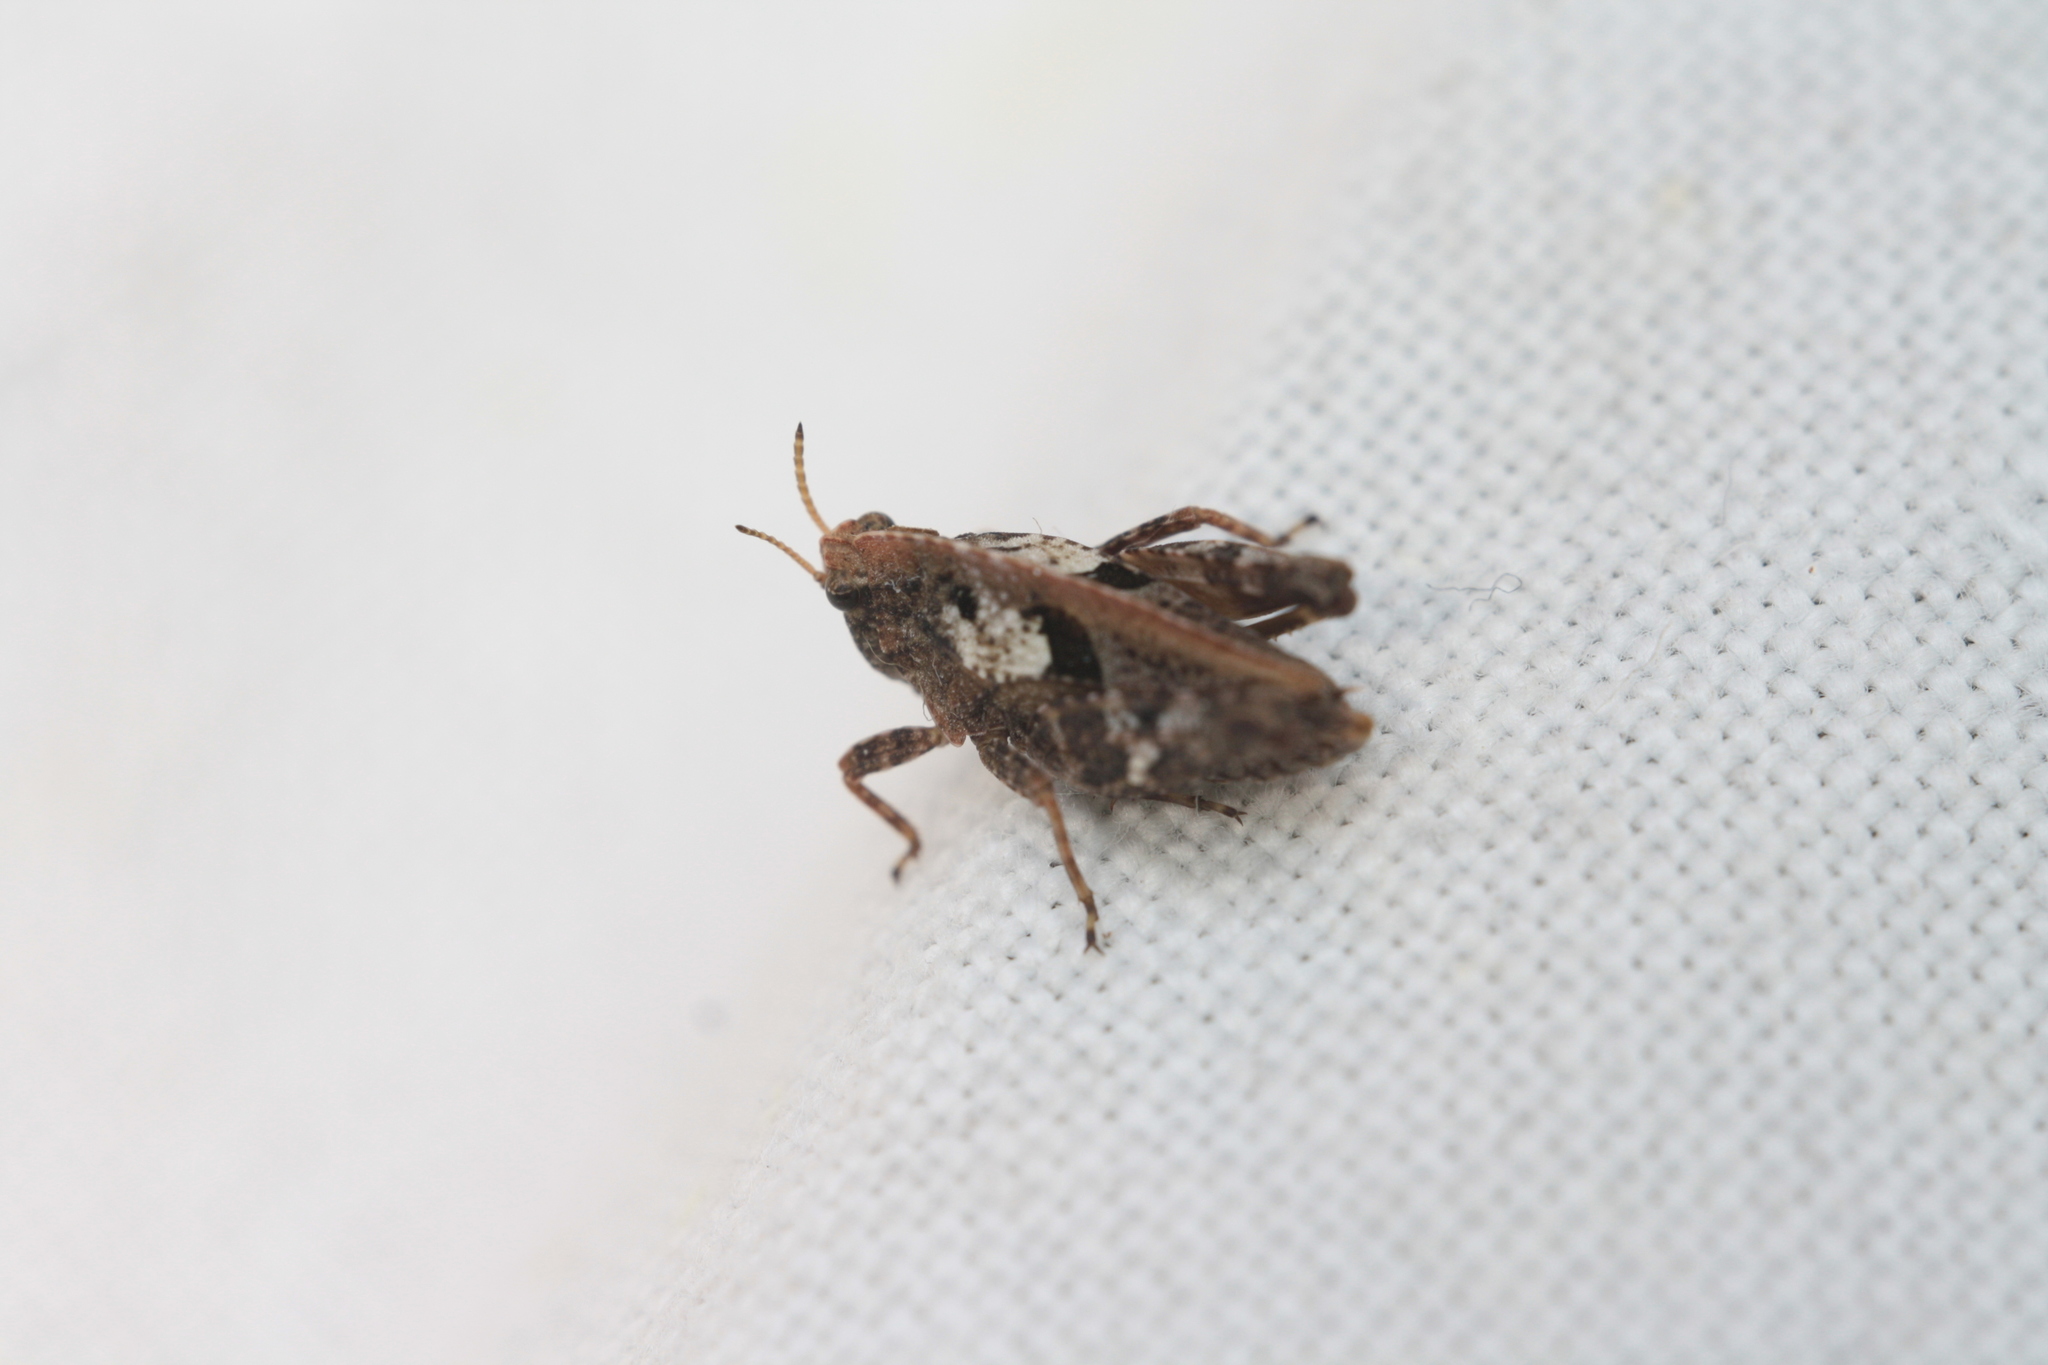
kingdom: Animalia
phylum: Arthropoda
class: Insecta
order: Orthoptera
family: Tetrigidae
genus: Tetrix
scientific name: Tetrix bipunctata
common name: Two-spotted groundhopper
